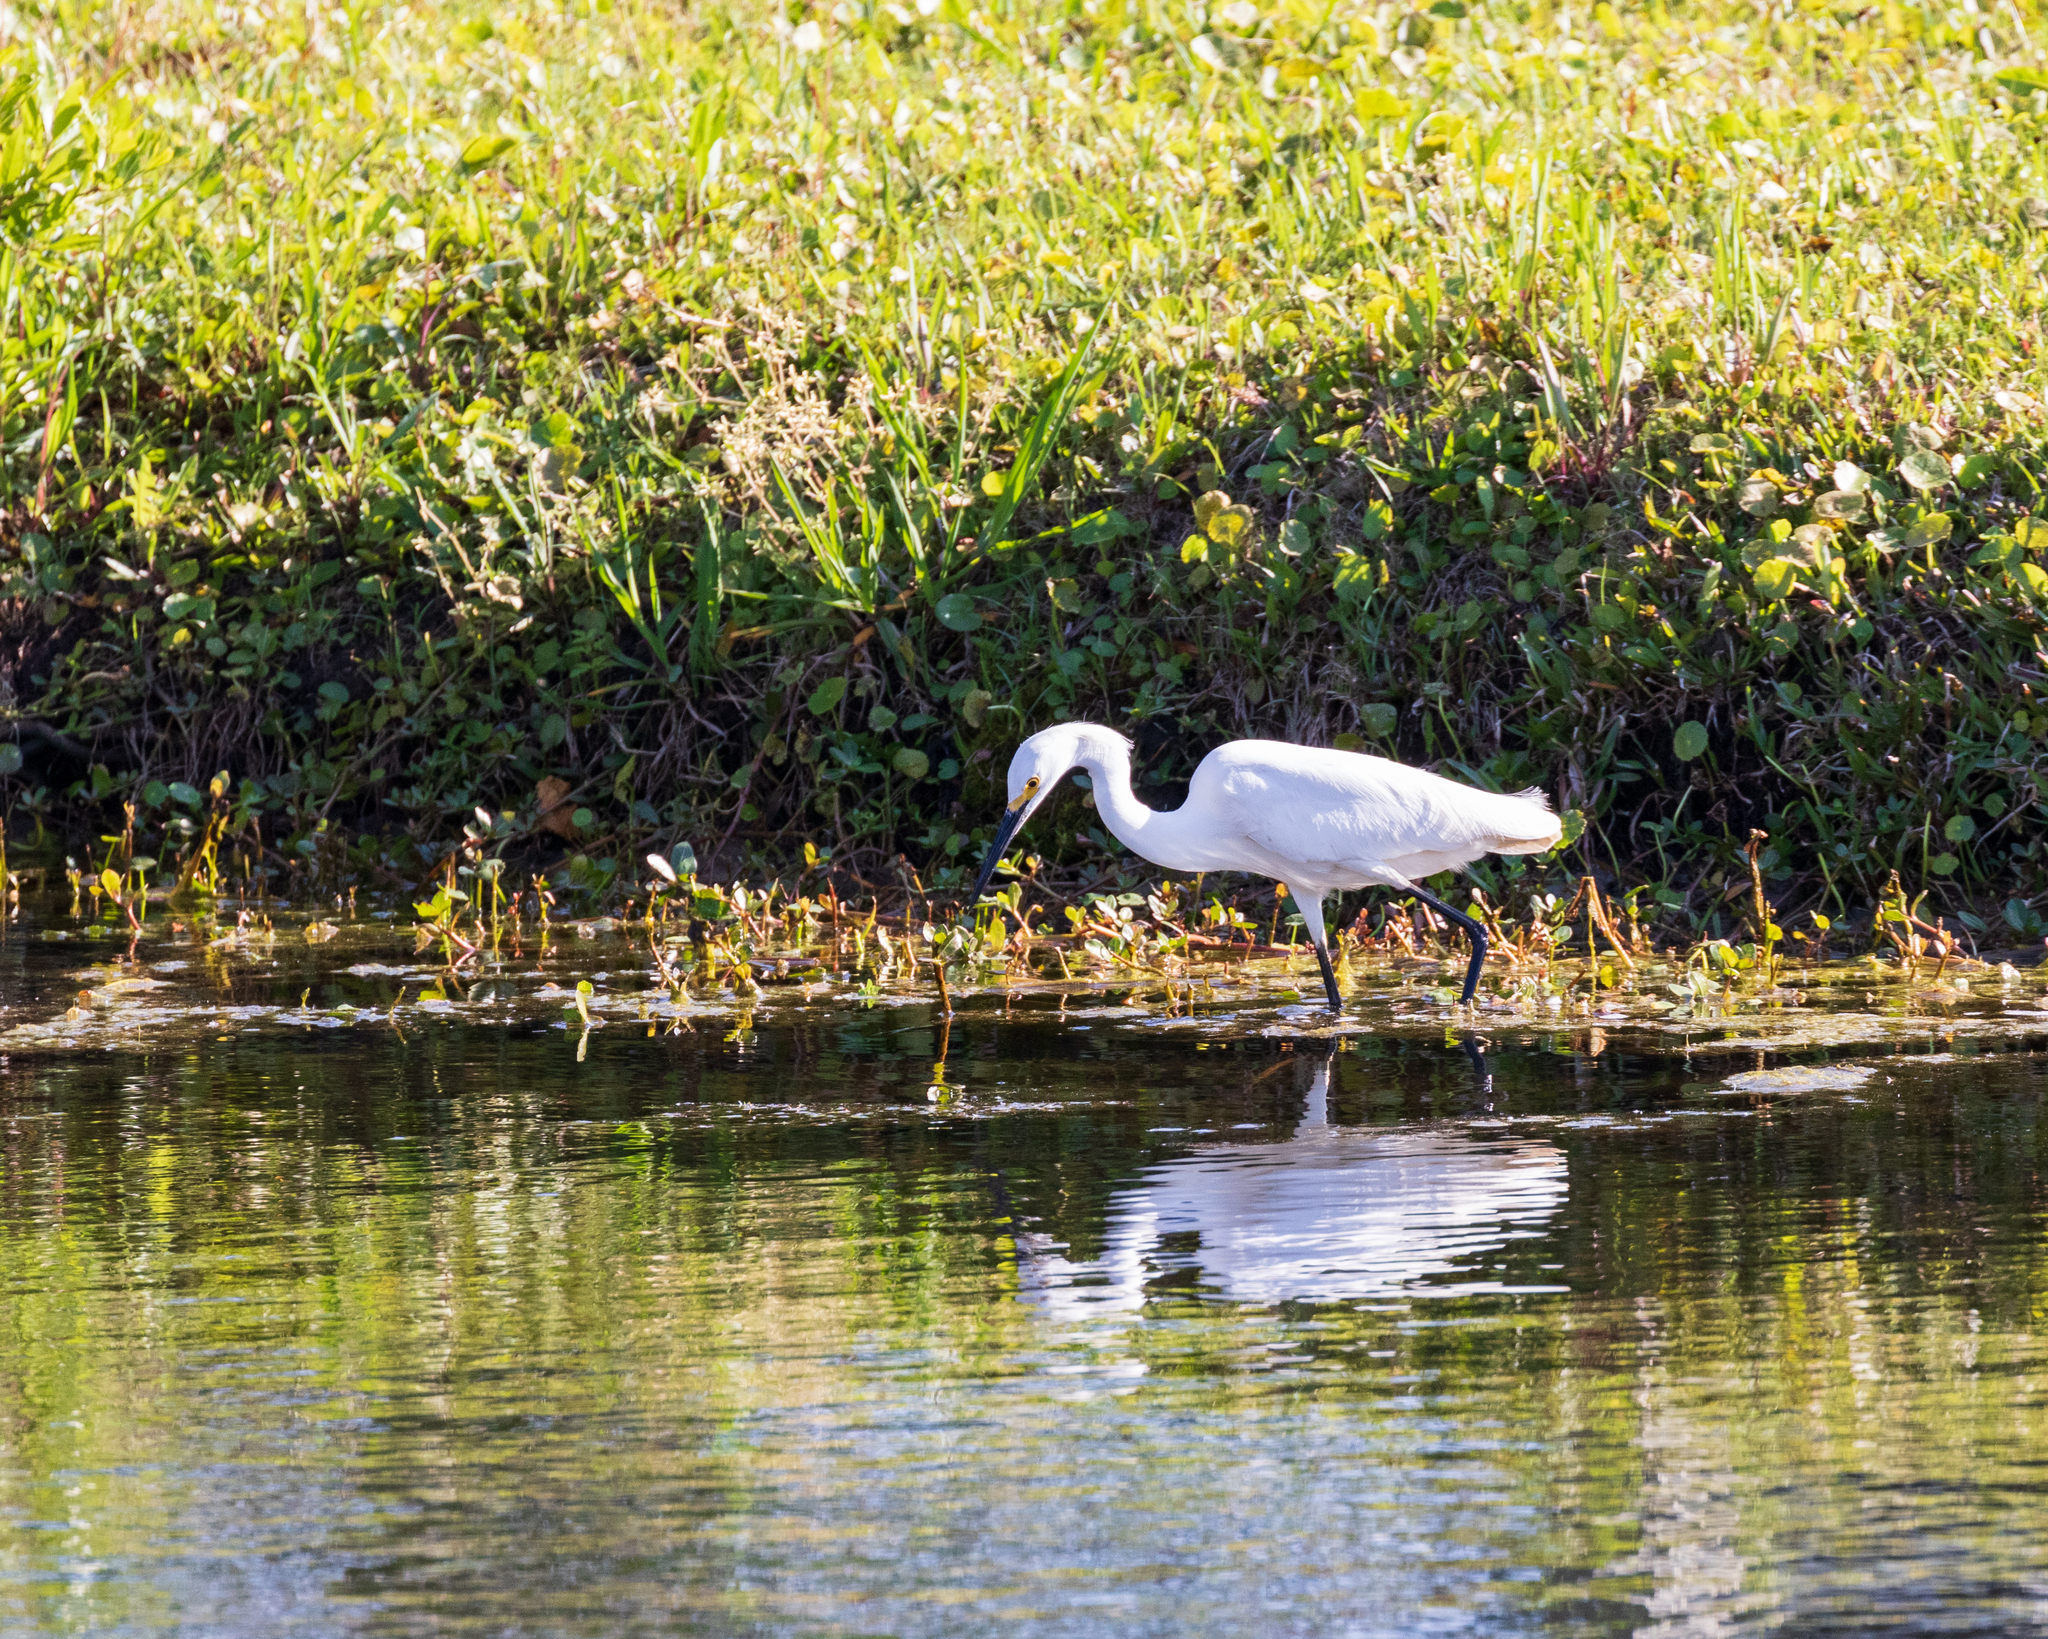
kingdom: Animalia
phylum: Chordata
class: Aves
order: Pelecaniformes
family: Ardeidae
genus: Egretta
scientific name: Egretta thula
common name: Snowy egret
